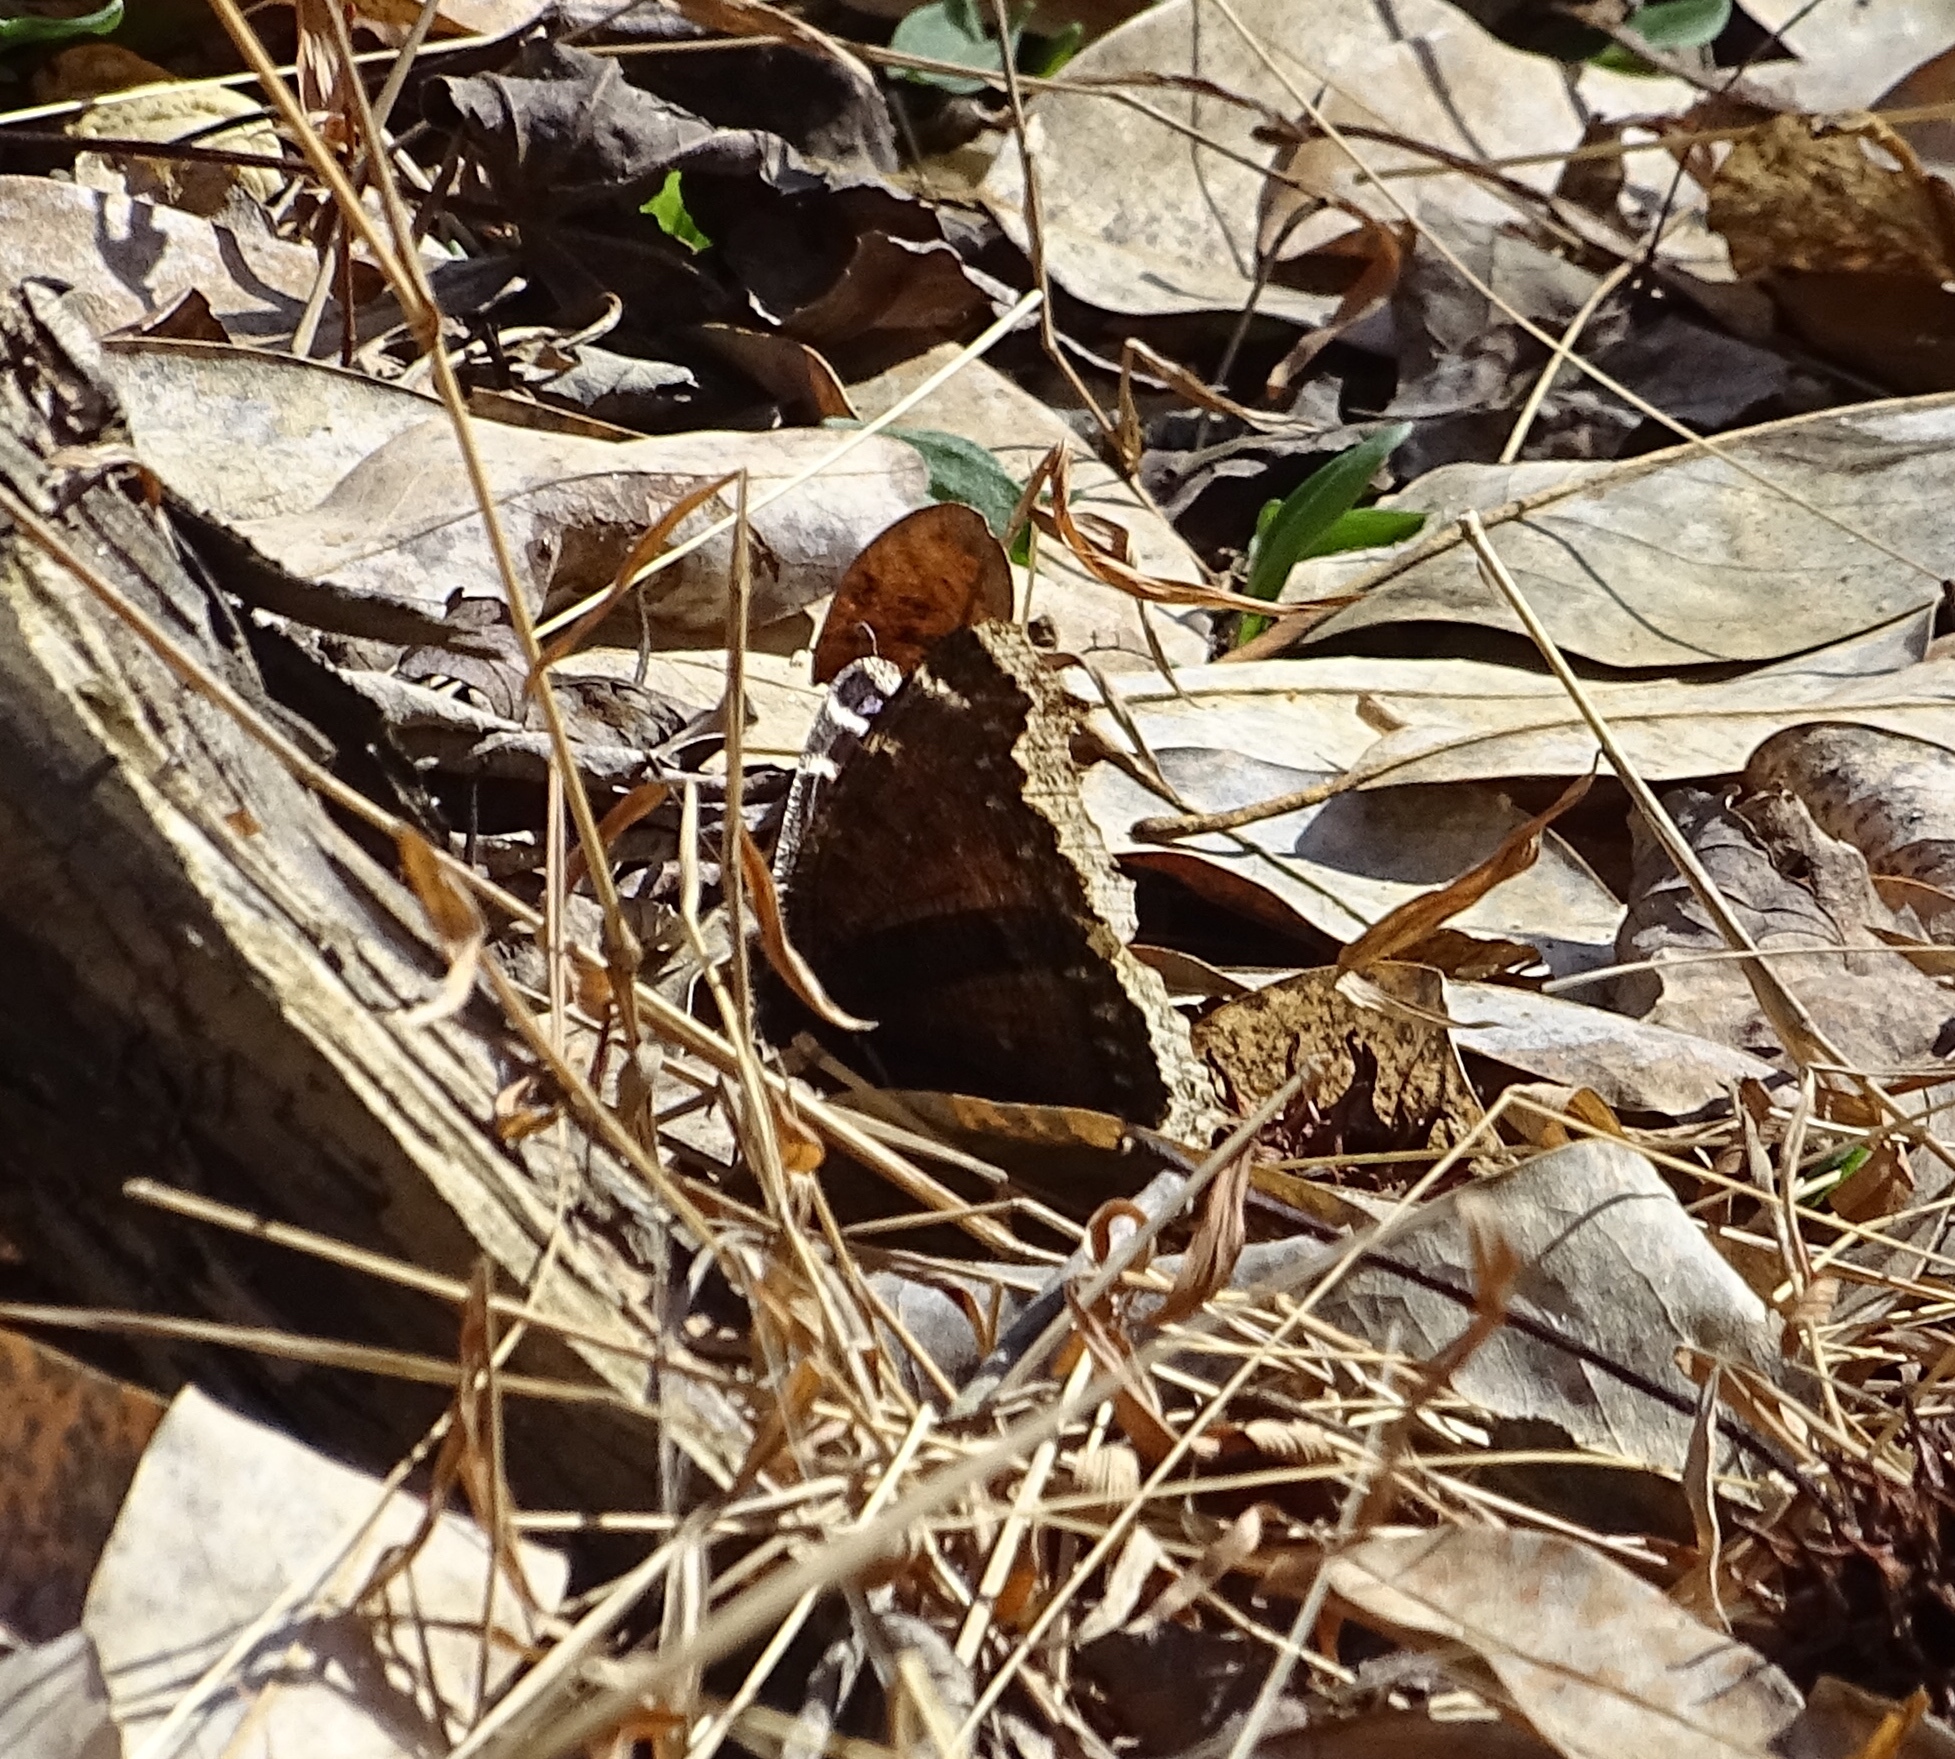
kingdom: Animalia
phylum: Arthropoda
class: Insecta
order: Lepidoptera
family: Nymphalidae
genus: Nymphalis
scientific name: Nymphalis antiopa
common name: Camberwell beauty
